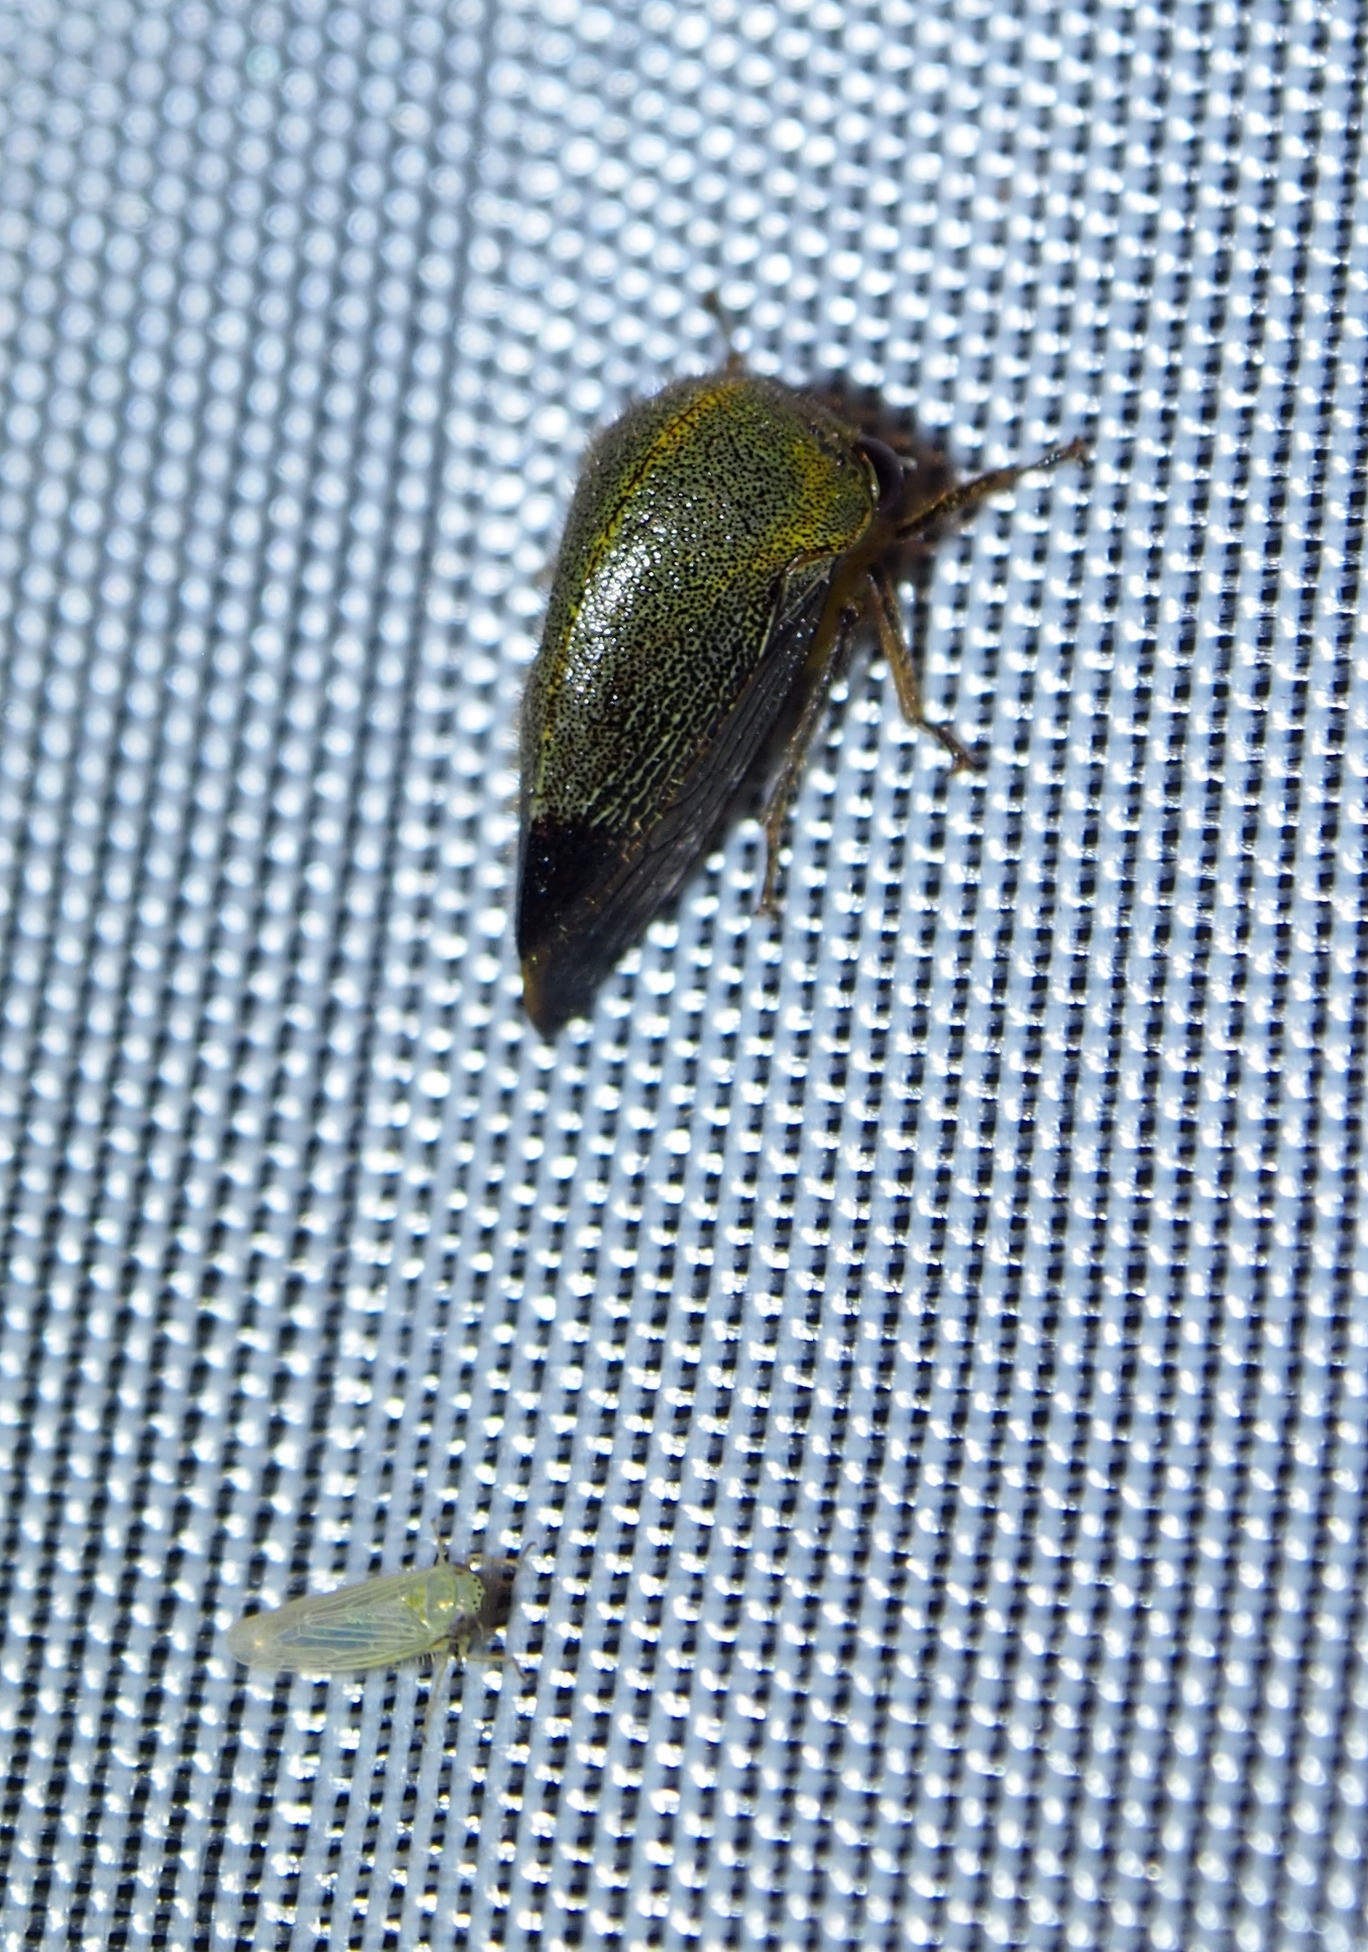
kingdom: Animalia
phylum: Arthropoda
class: Insecta
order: Hemiptera
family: Membracidae
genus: Carynota
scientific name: Carynota mera
